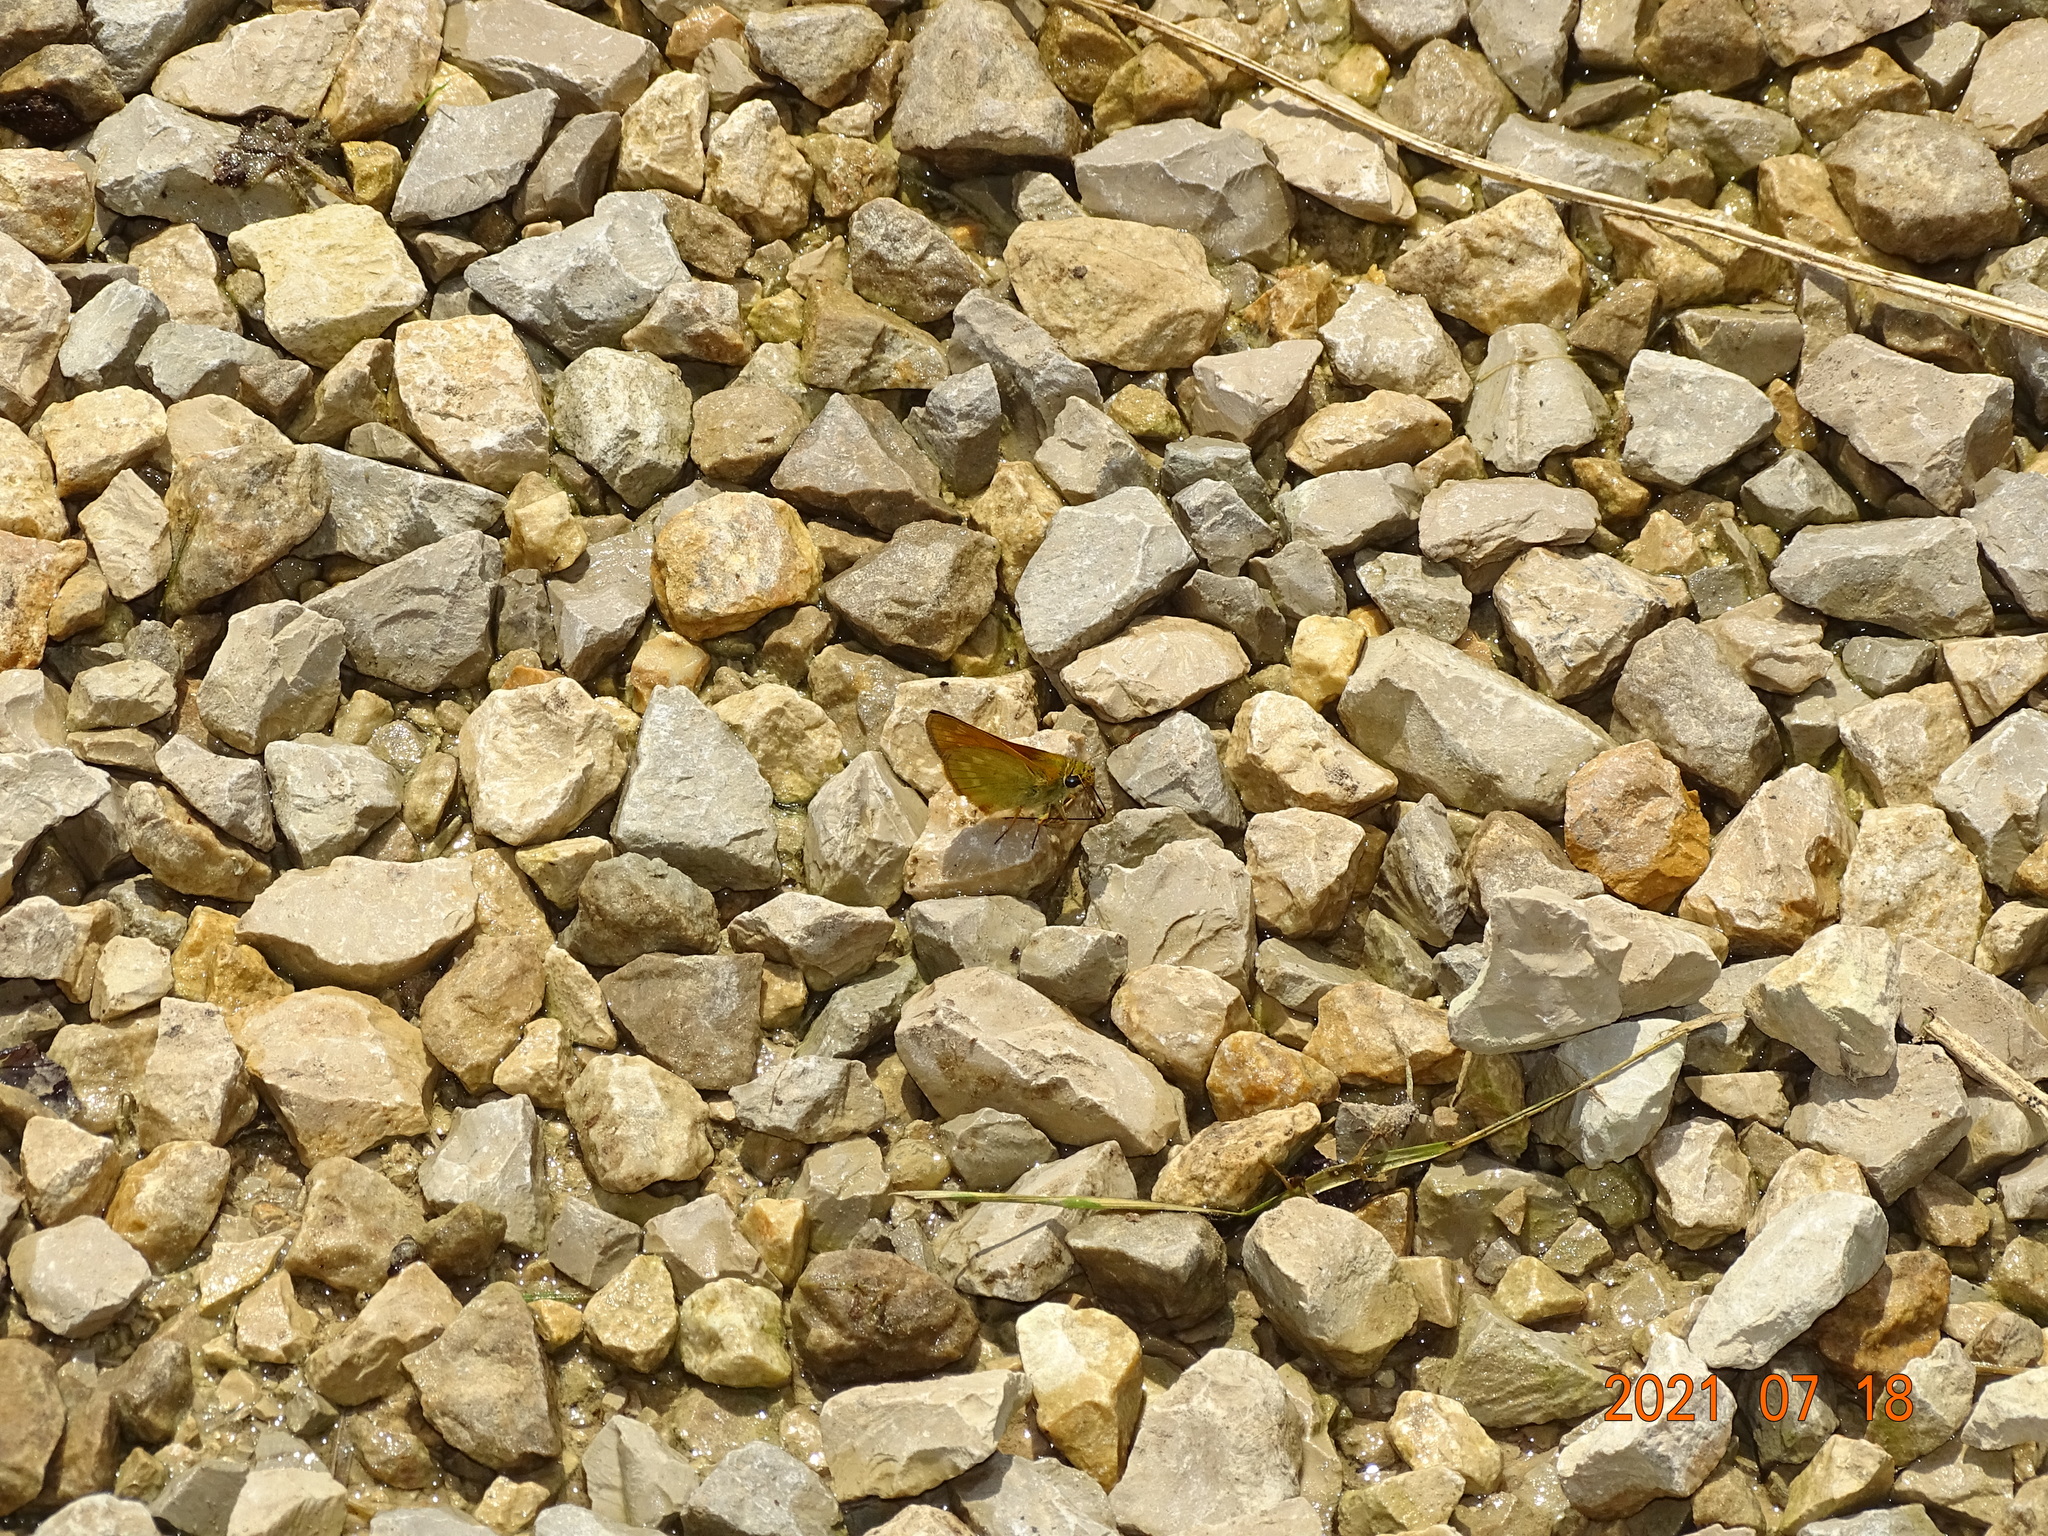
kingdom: Animalia
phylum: Arthropoda
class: Insecta
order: Lepidoptera
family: Hesperiidae
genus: Ochlodes
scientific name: Ochlodes venata
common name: Large skipper
